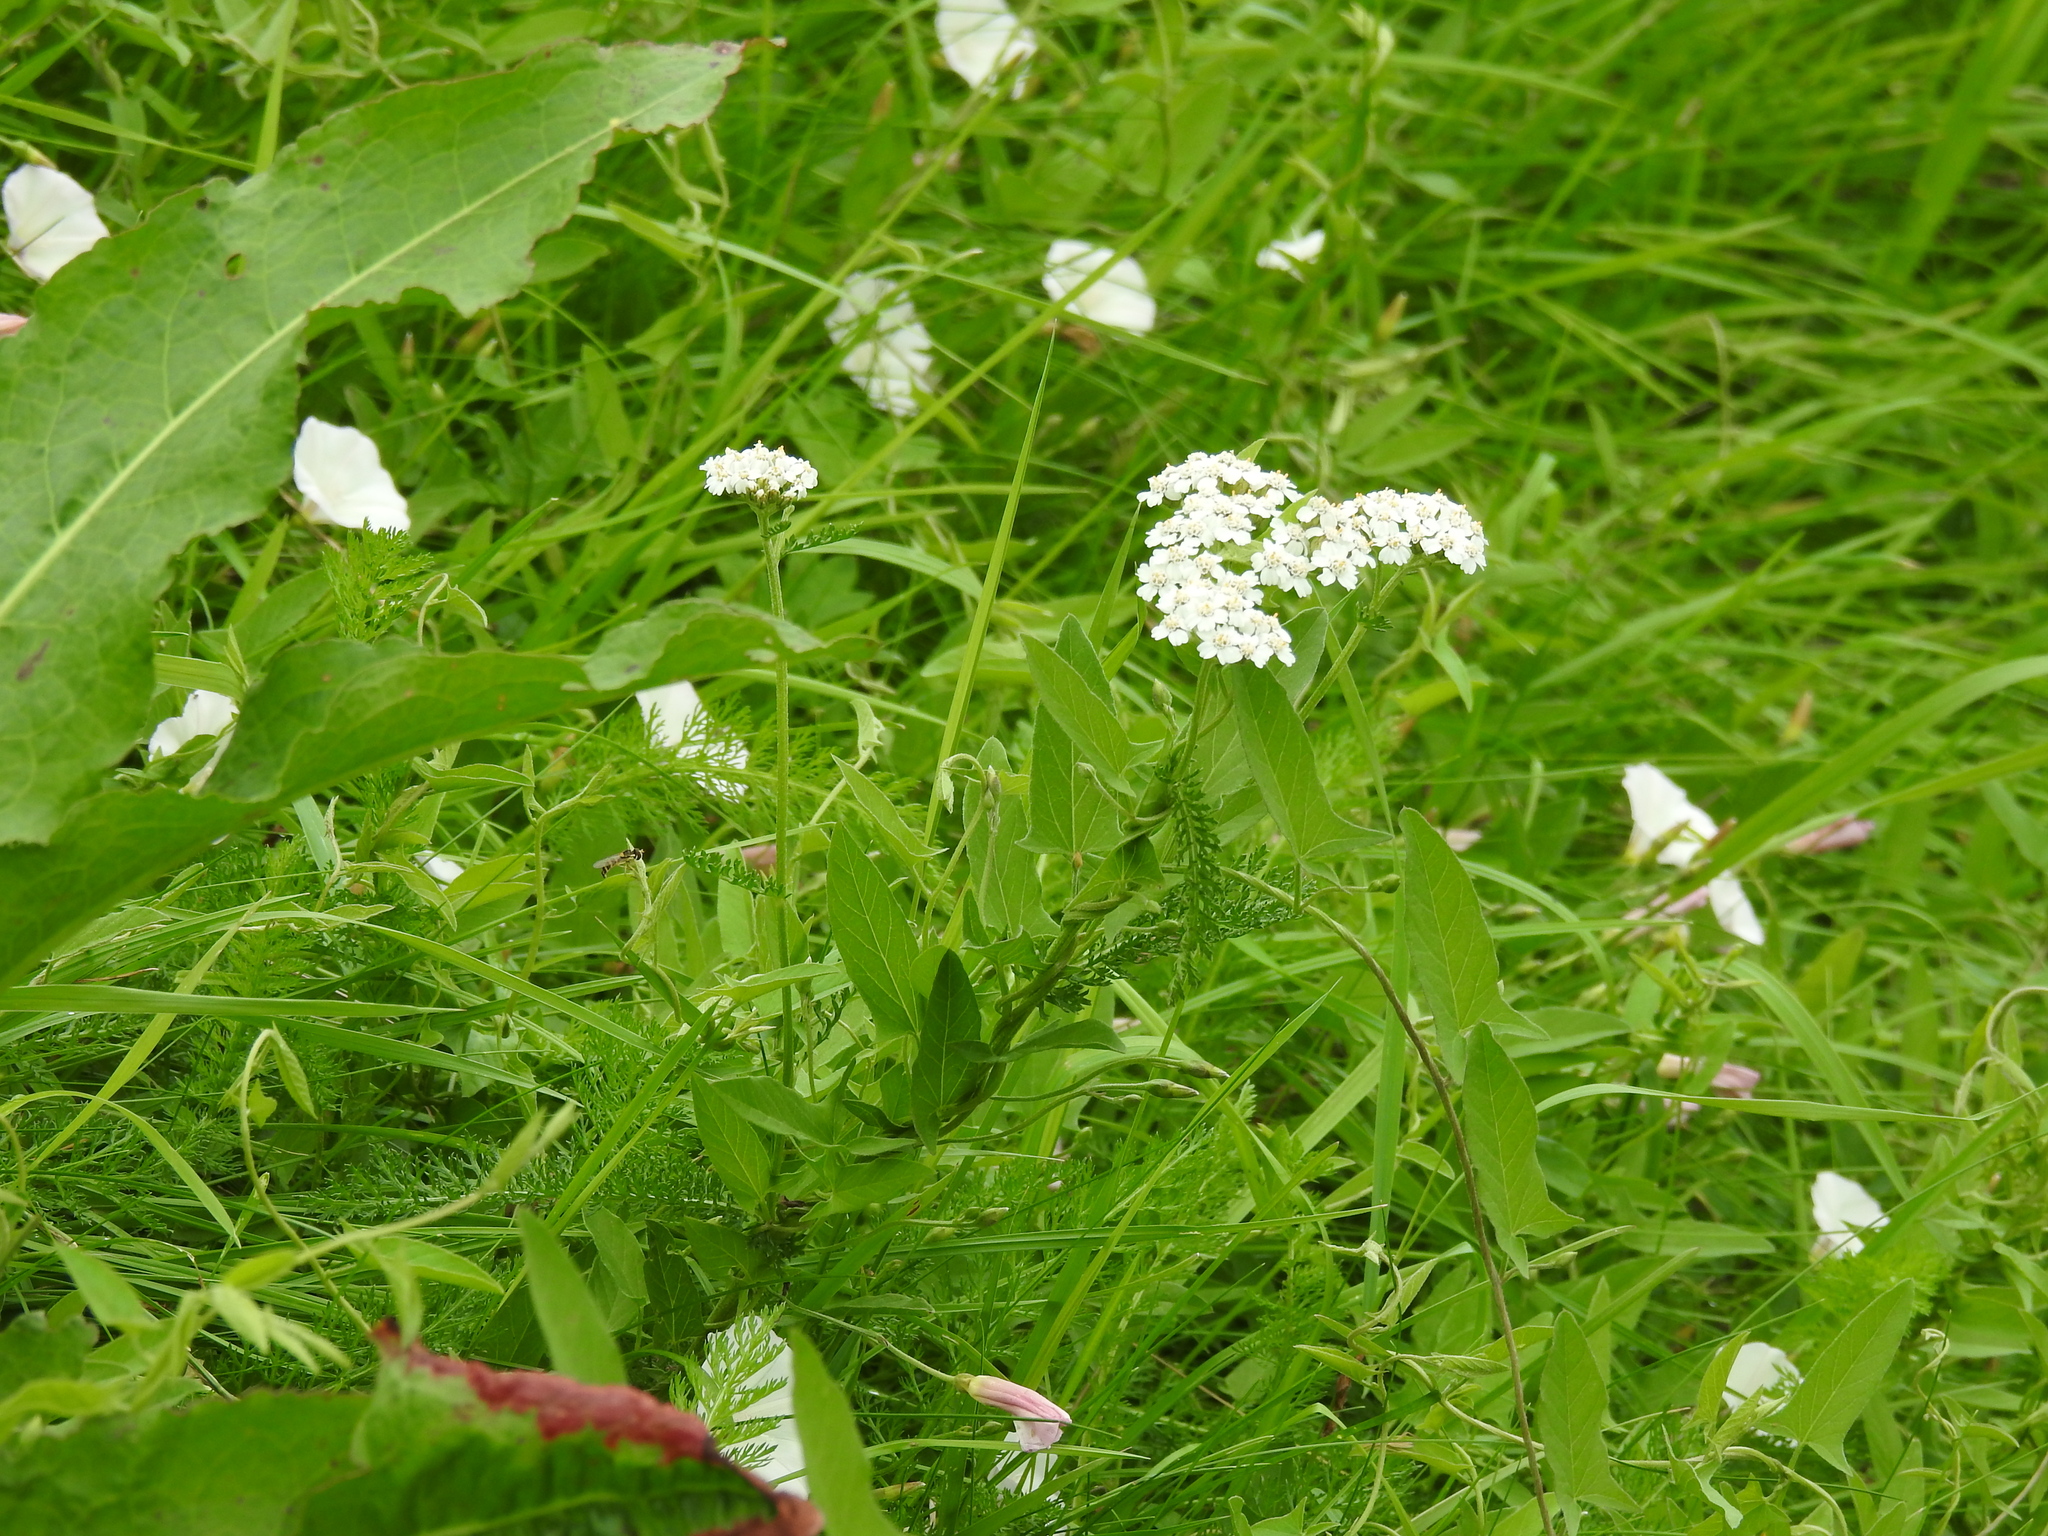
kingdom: Plantae
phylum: Tracheophyta
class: Magnoliopsida
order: Asterales
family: Asteraceae
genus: Achillea
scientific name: Achillea millefolium
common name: Yarrow
